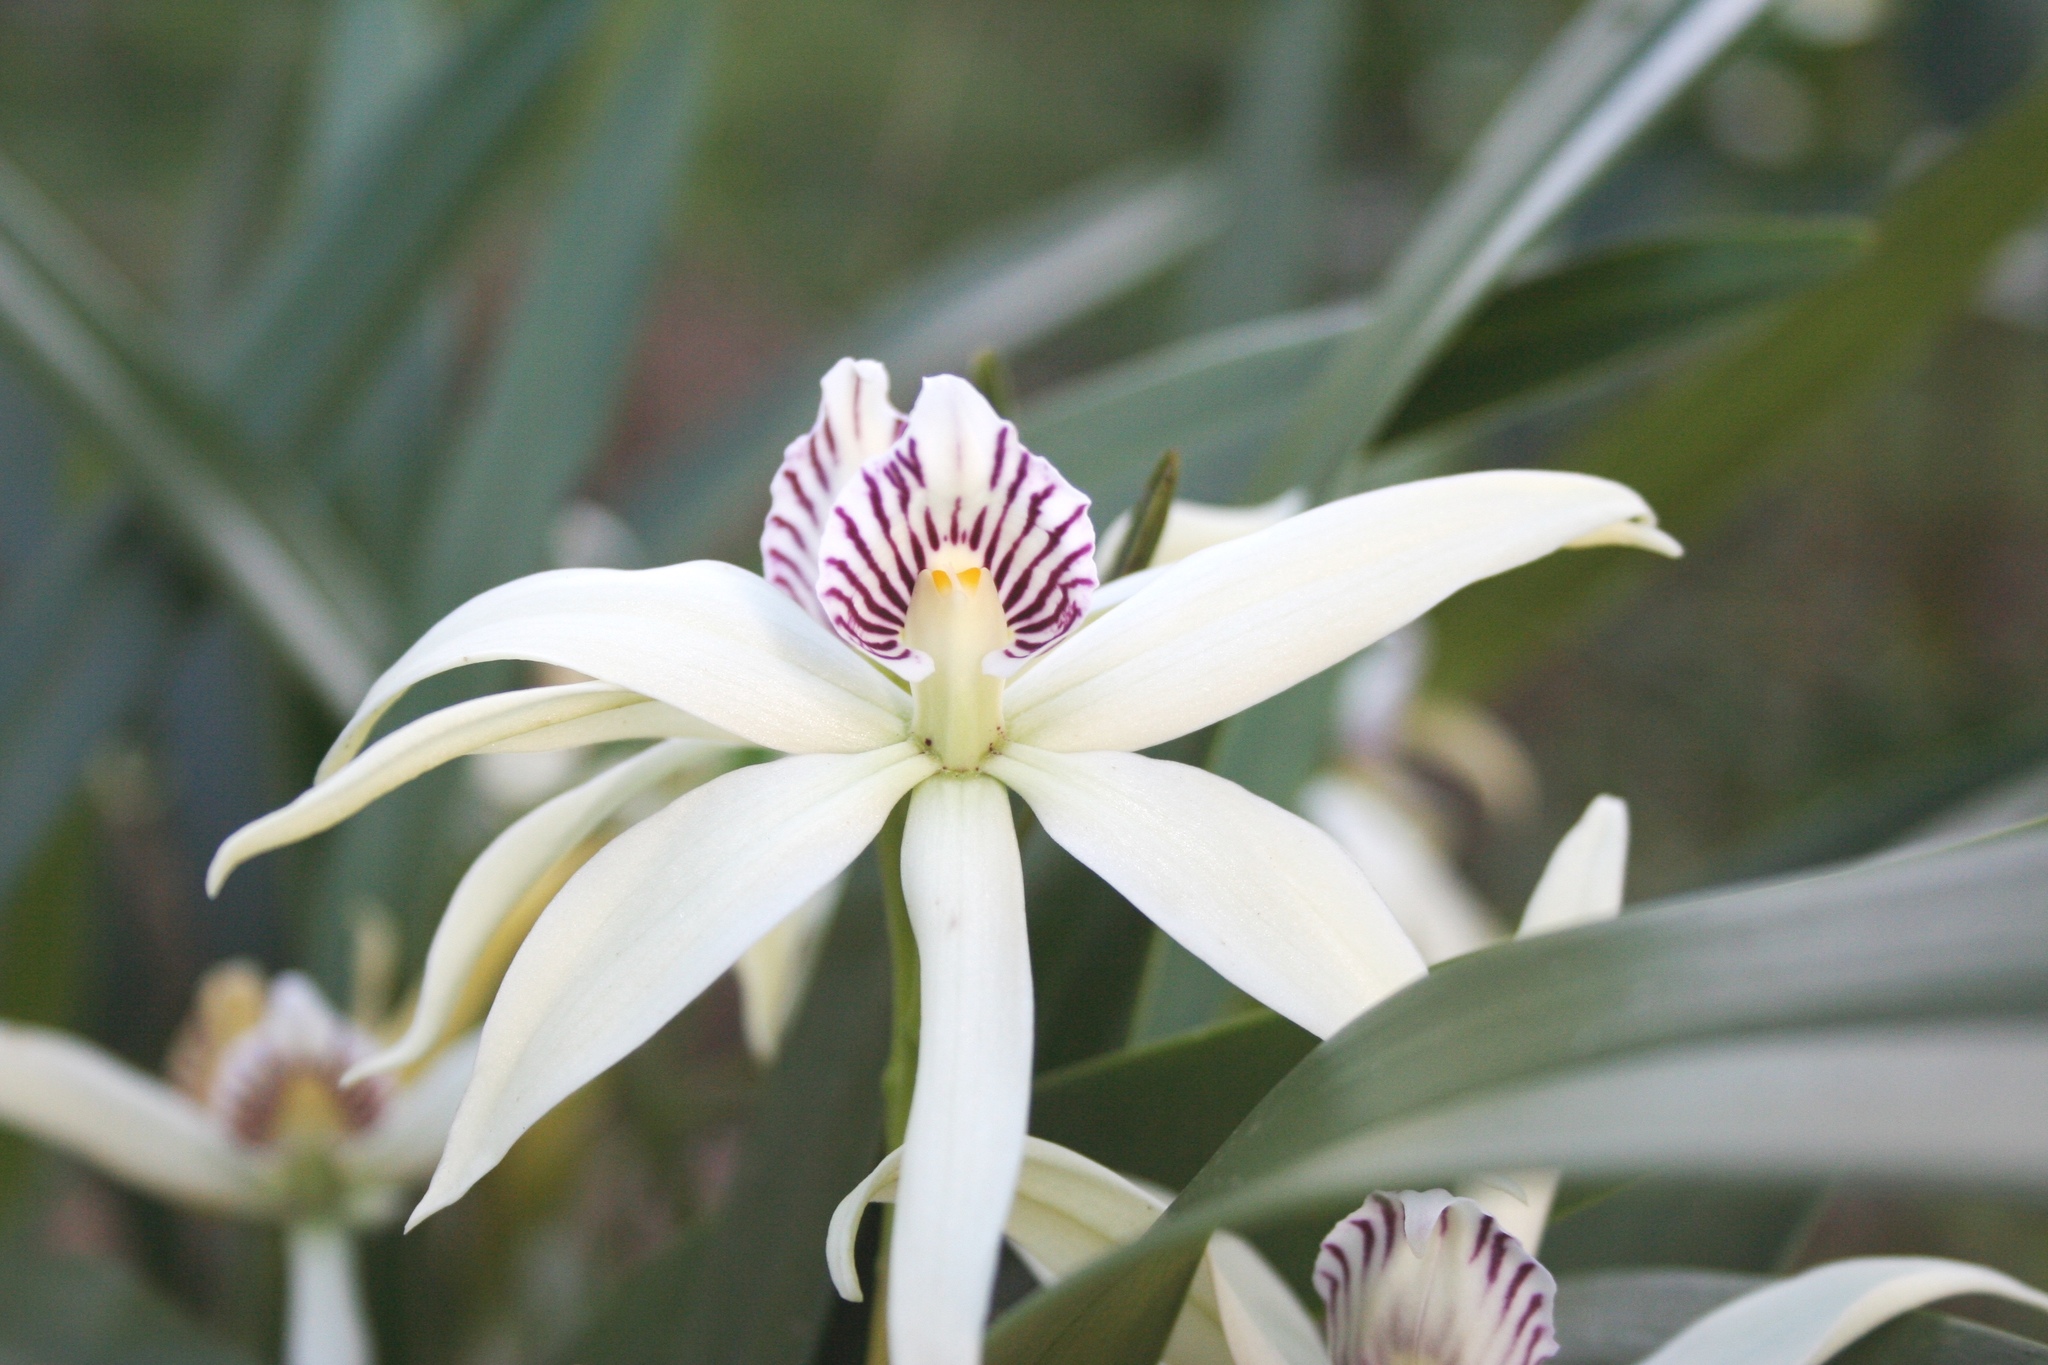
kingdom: Plantae
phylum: Tracheophyta
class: Liliopsida
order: Asparagales
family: Orchidaceae
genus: Prosthechea
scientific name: Prosthechea baculus
